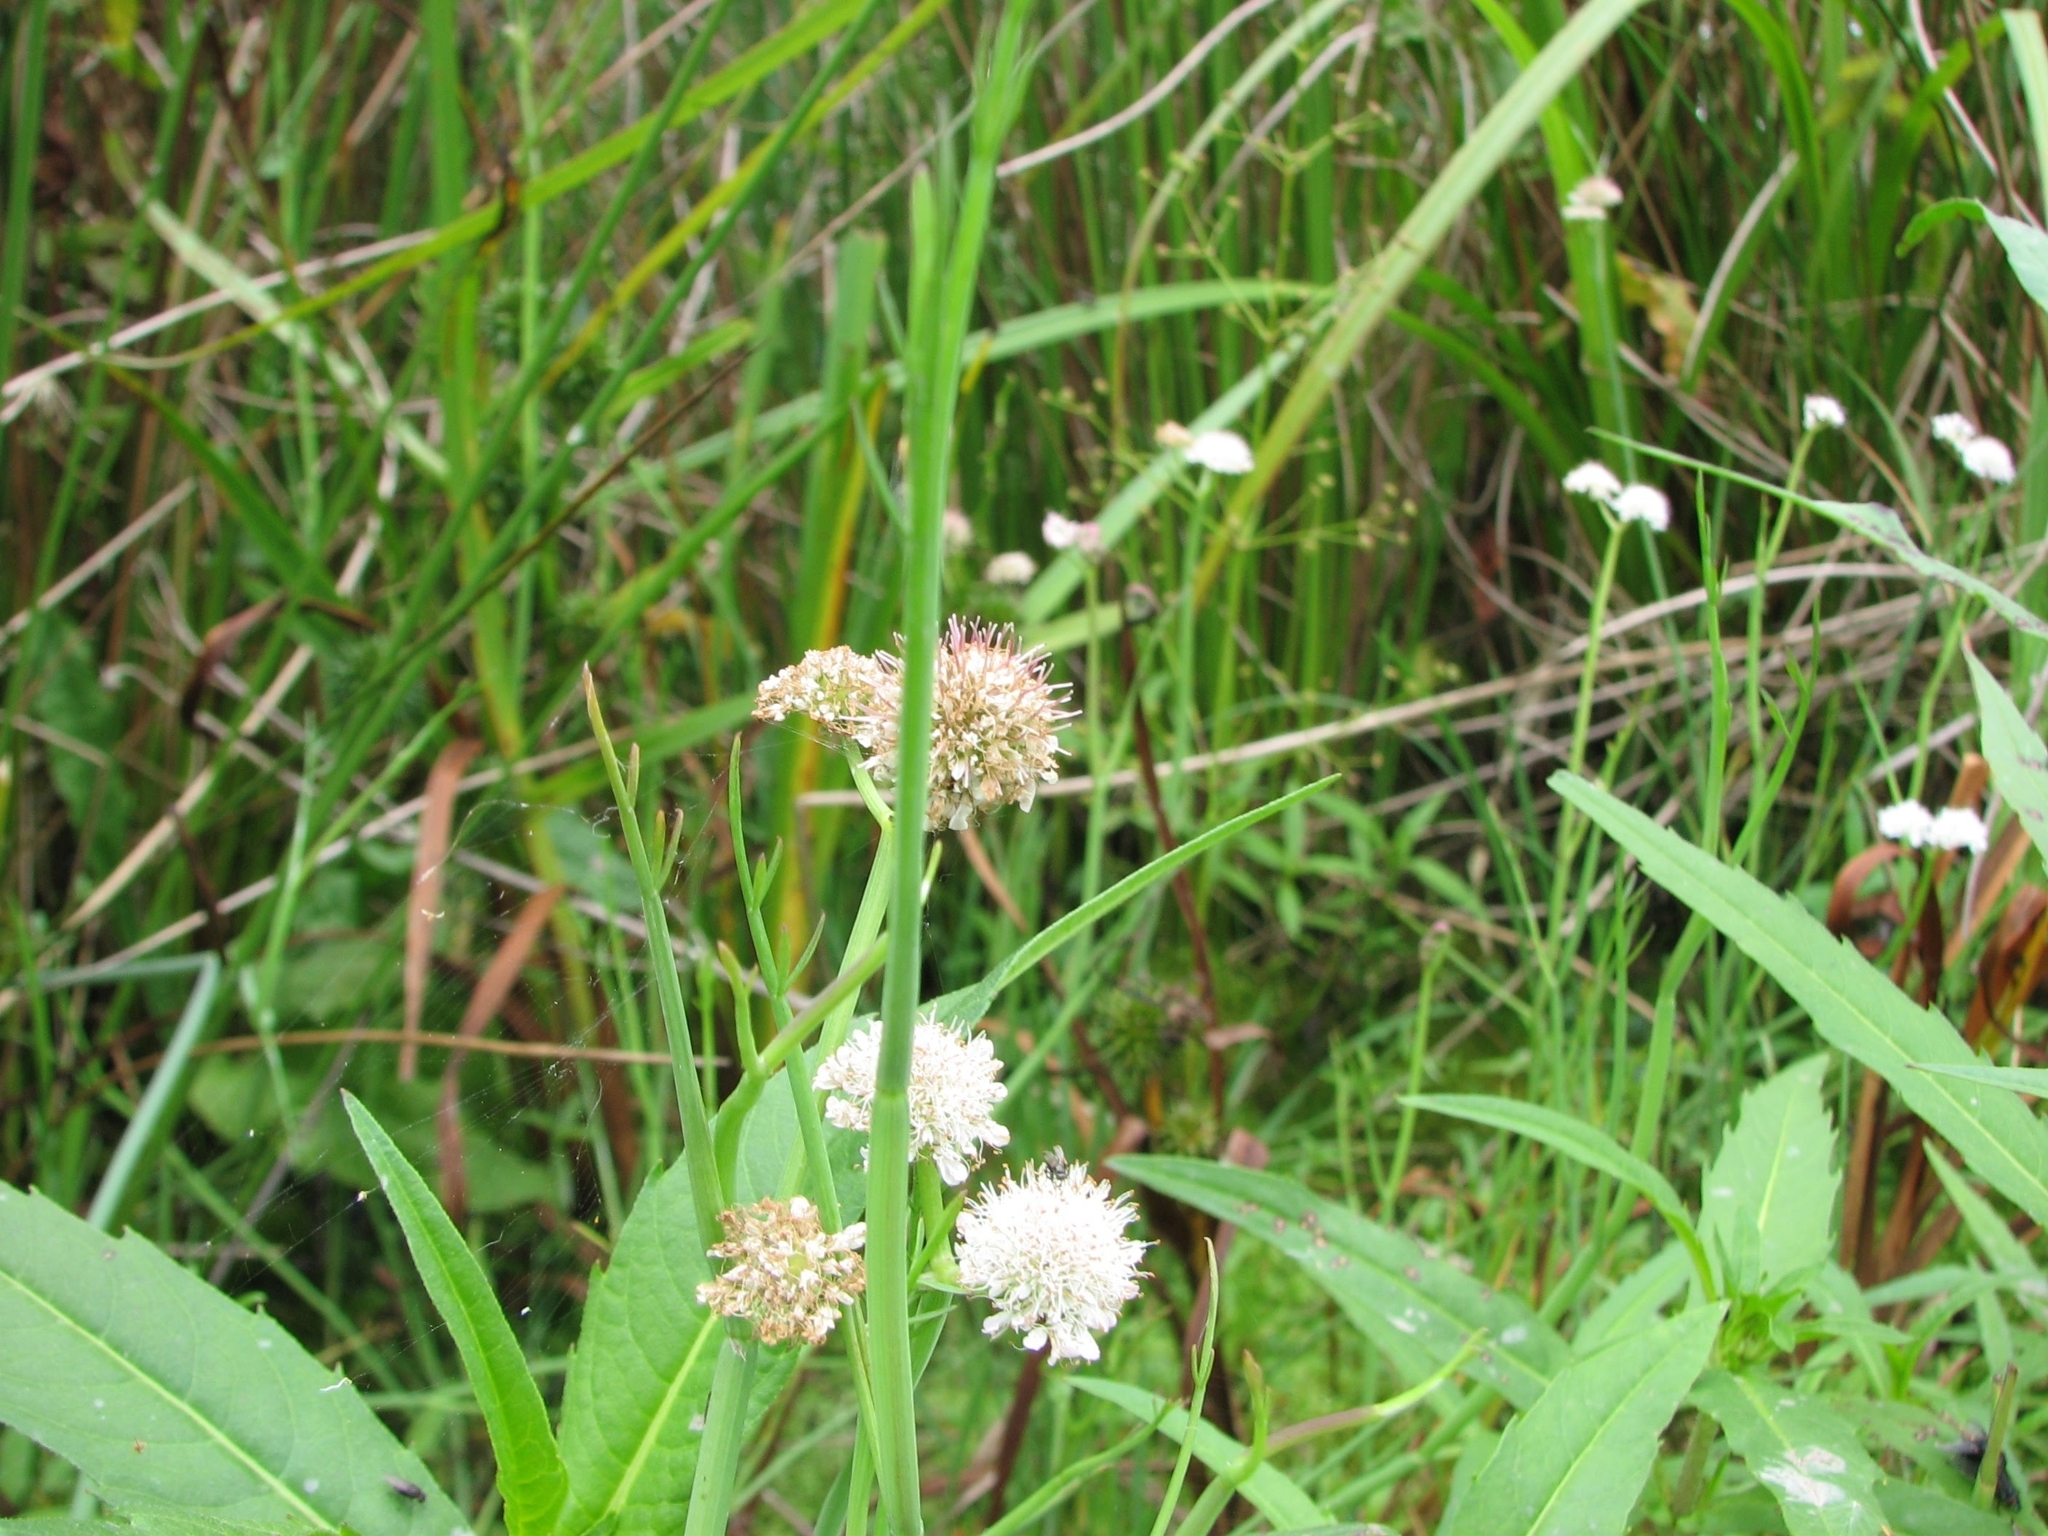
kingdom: Plantae
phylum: Tracheophyta
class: Magnoliopsida
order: Apiales
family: Apiaceae
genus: Oenanthe
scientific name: Oenanthe fistulosa
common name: Tubular water-dropwort
